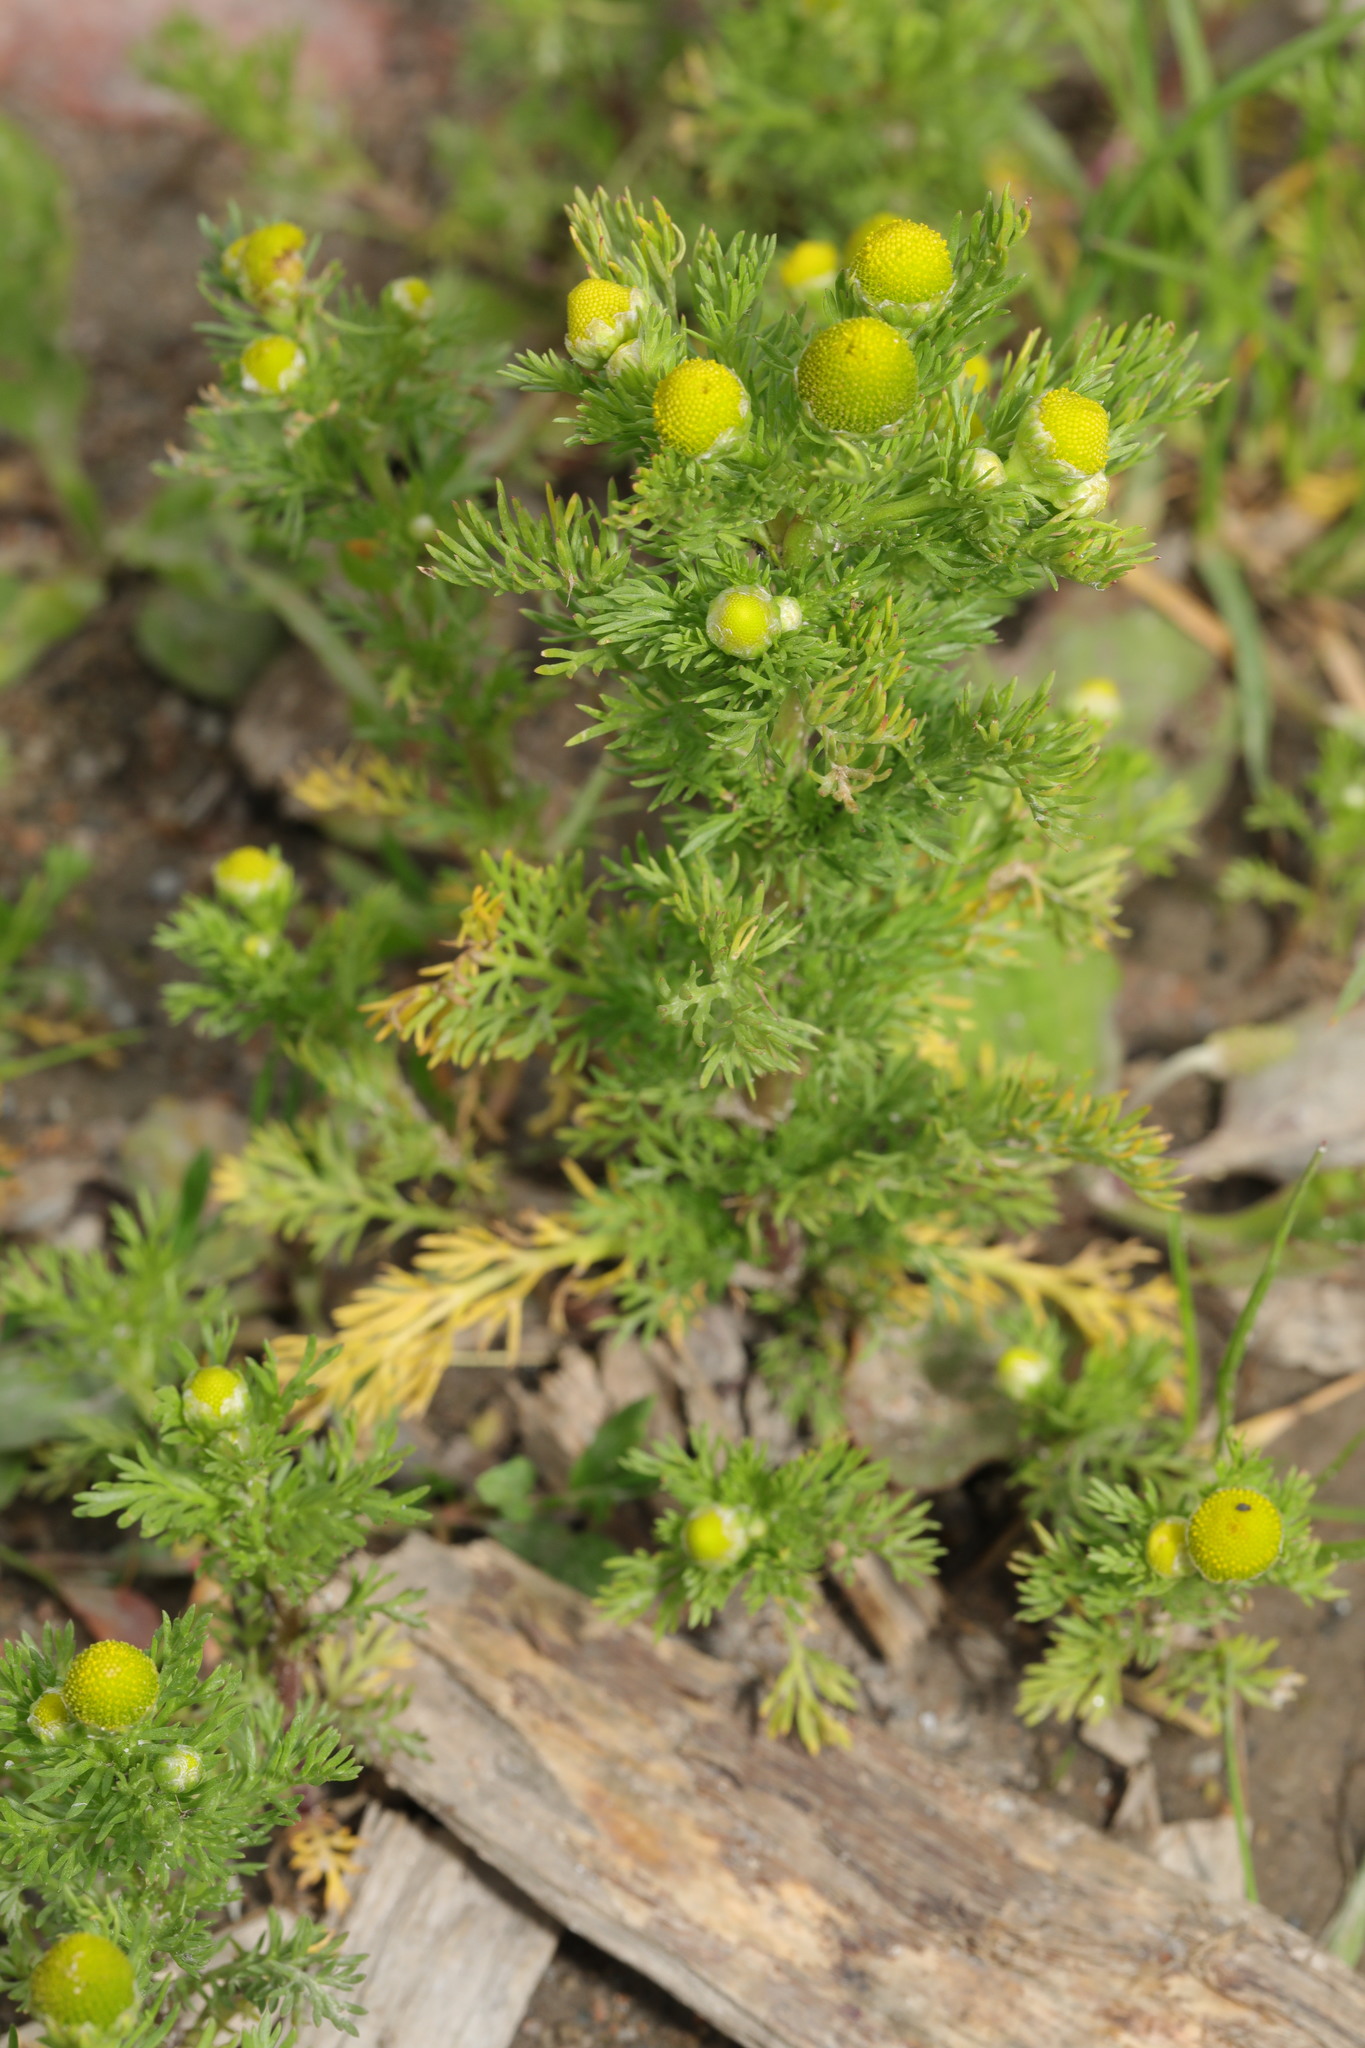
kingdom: Plantae
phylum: Tracheophyta
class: Magnoliopsida
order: Asterales
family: Asteraceae
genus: Matricaria
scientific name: Matricaria discoidea
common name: Disc mayweed
